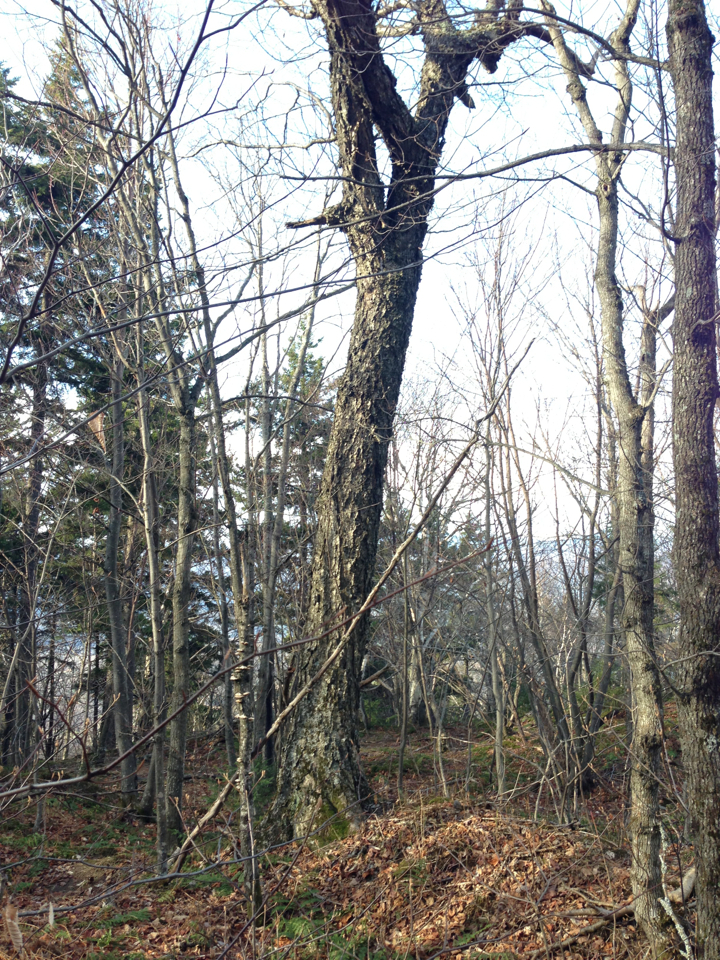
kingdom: Plantae
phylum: Tracheophyta
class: Magnoliopsida
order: Fagales
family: Betulaceae
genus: Betula
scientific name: Betula alleghaniensis
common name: Yellow birch
